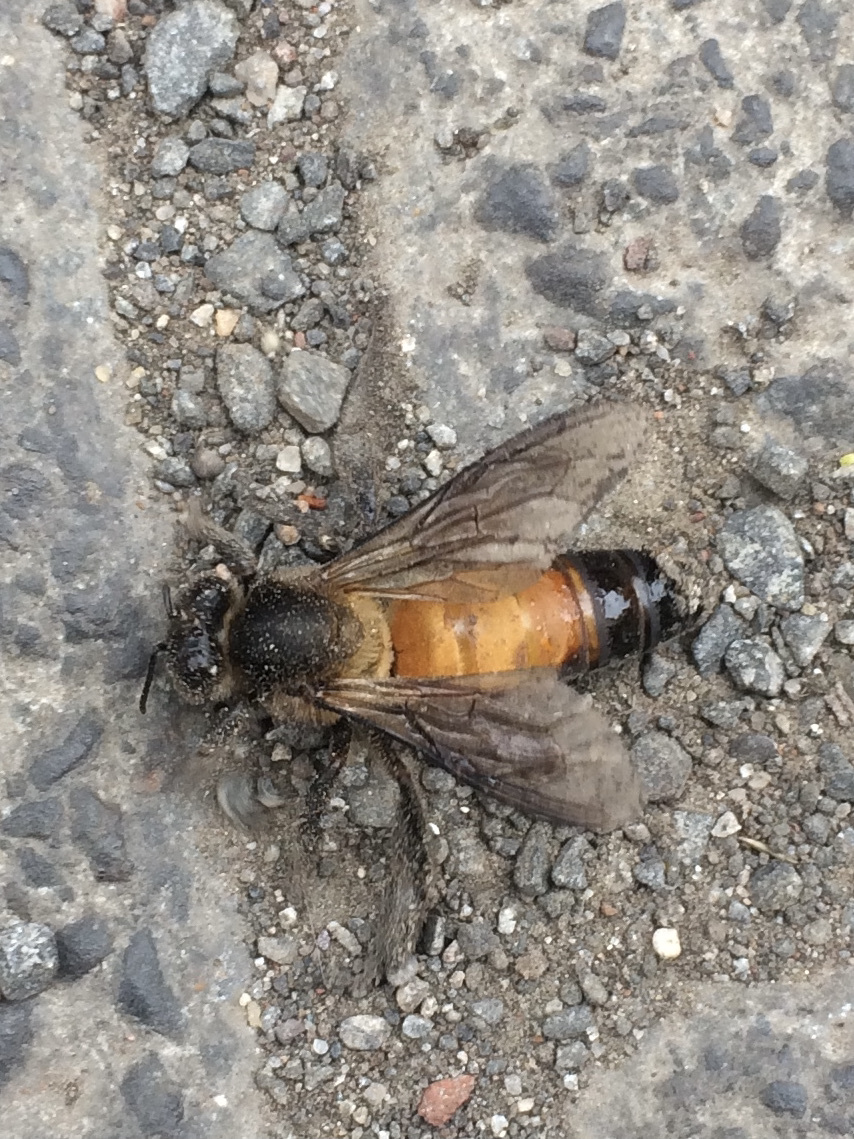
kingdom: Animalia
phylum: Arthropoda
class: Insecta
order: Hymenoptera
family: Apidae
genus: Apis
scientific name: Apis dorsata
